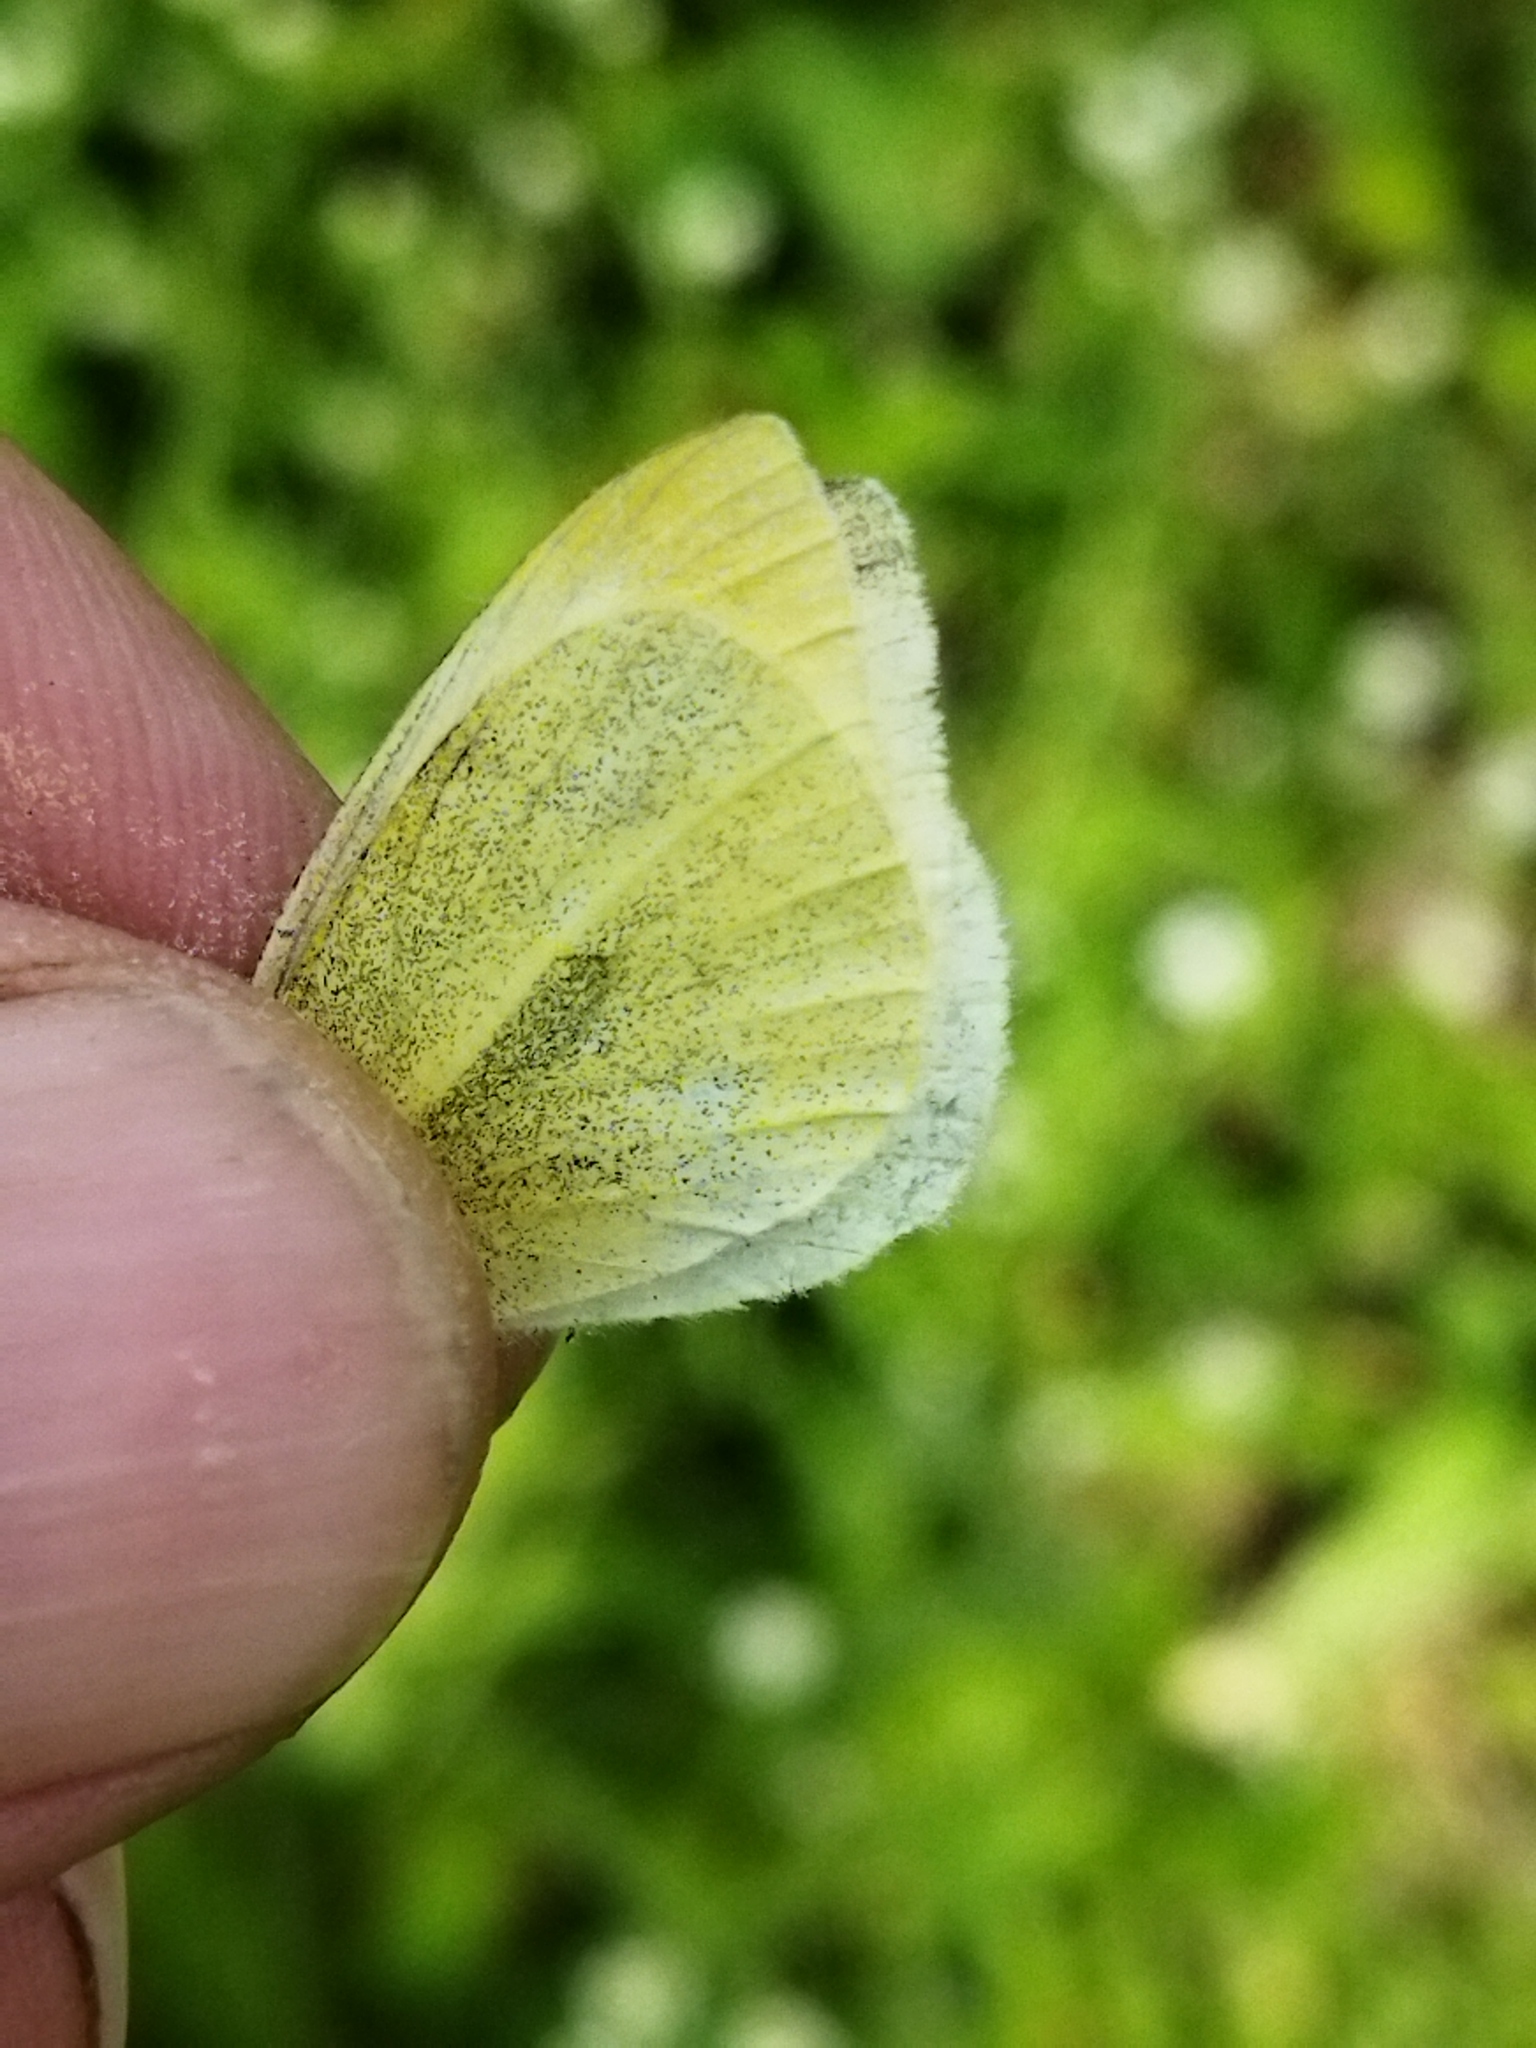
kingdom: Animalia
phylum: Arthropoda
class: Insecta
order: Lepidoptera
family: Pieridae
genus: Pieris
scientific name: Pieris rapae
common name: Small white
